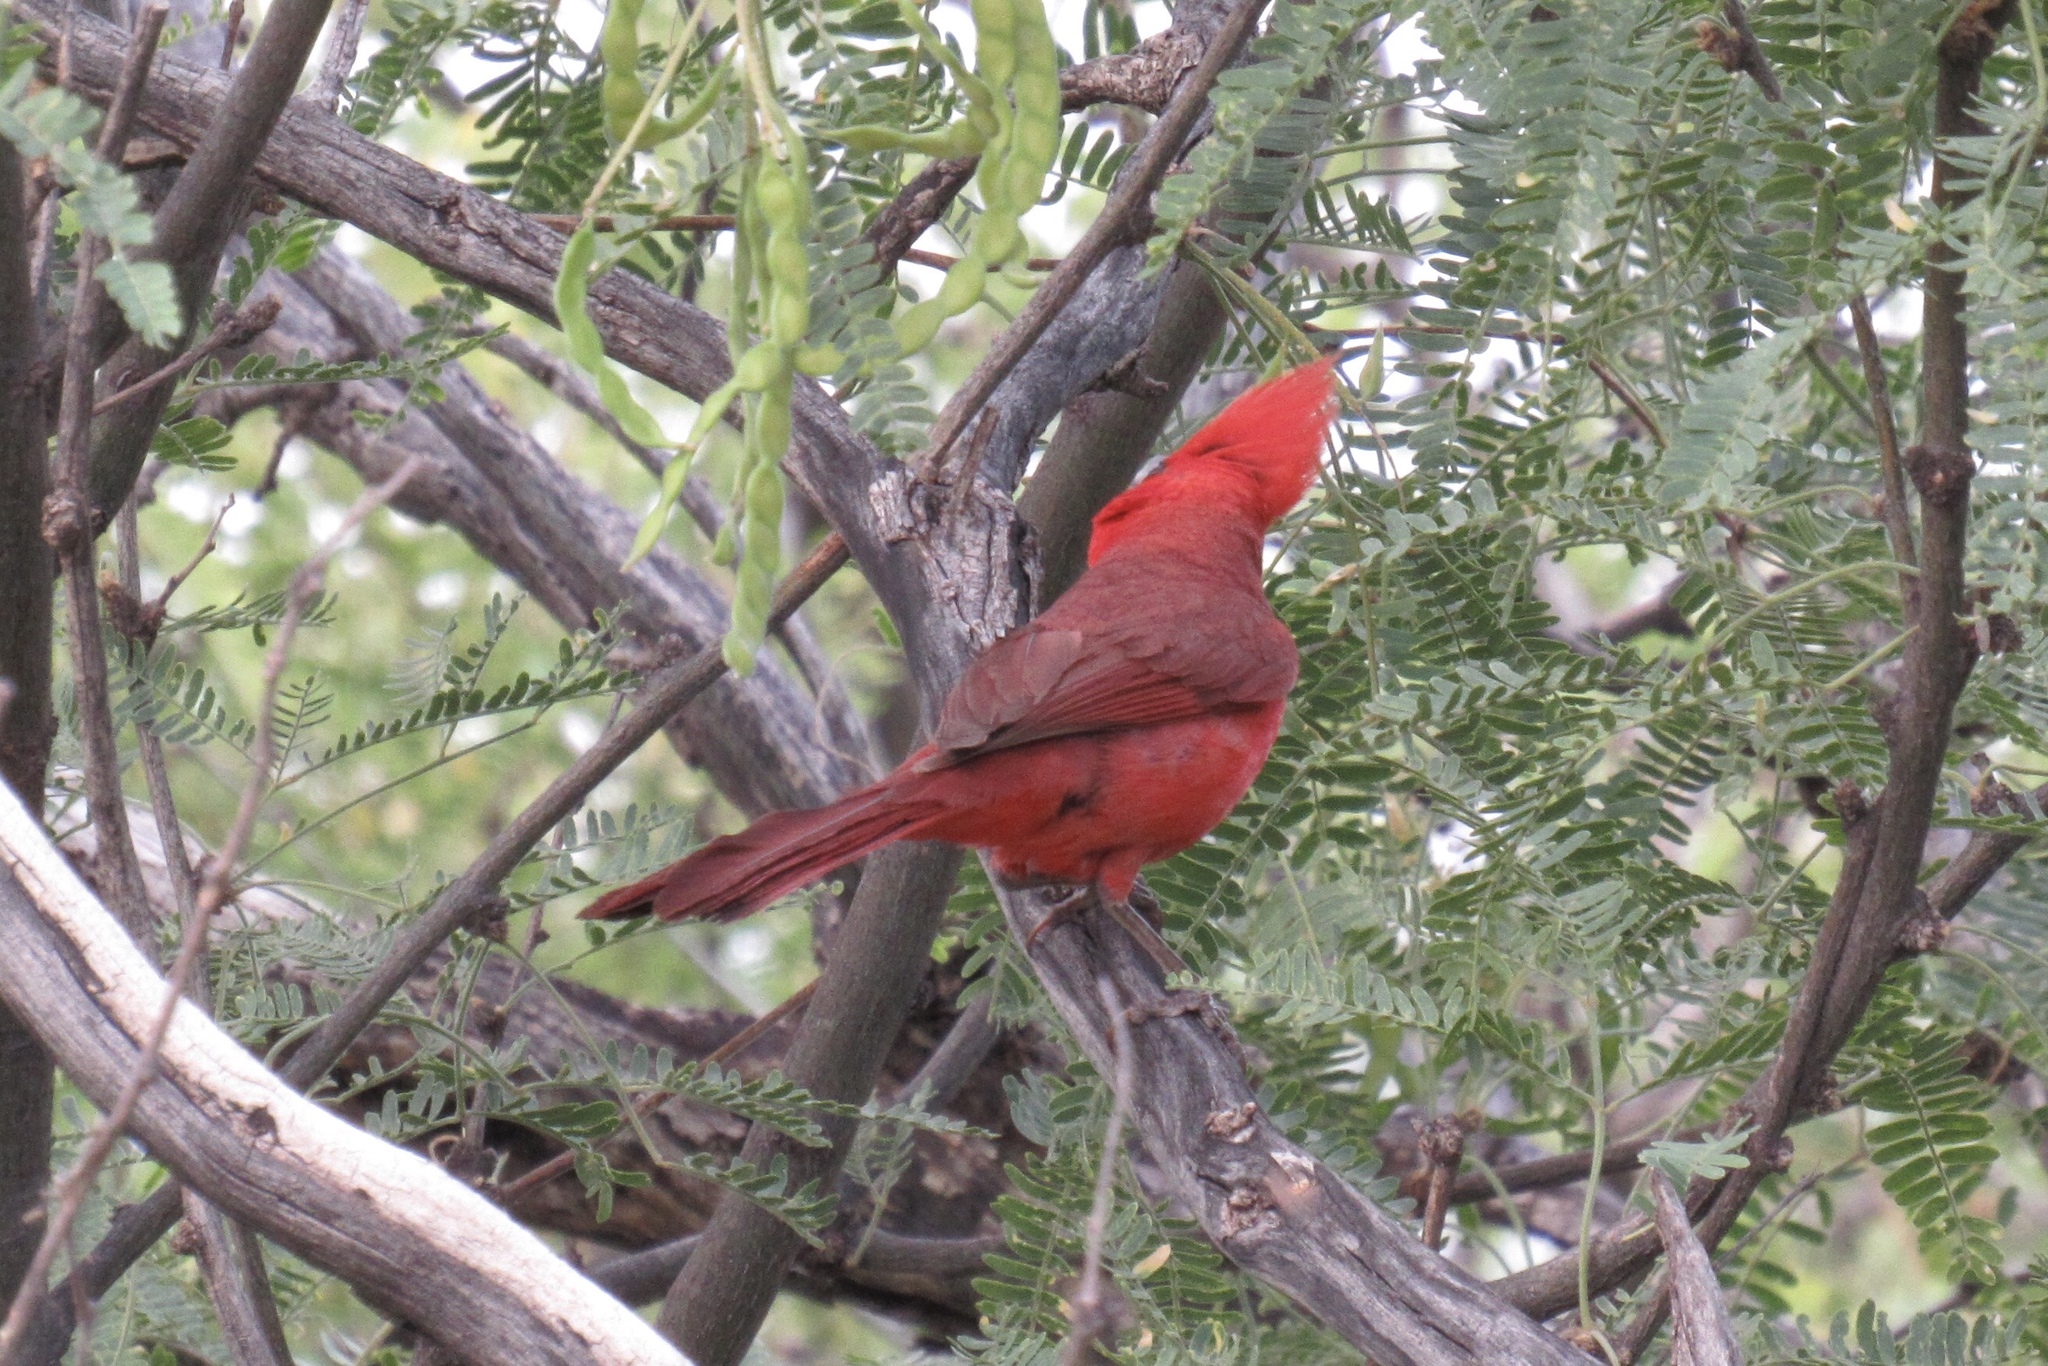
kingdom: Animalia
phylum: Chordata
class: Aves
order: Passeriformes
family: Cardinalidae
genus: Cardinalis
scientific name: Cardinalis cardinalis
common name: Northern cardinal
